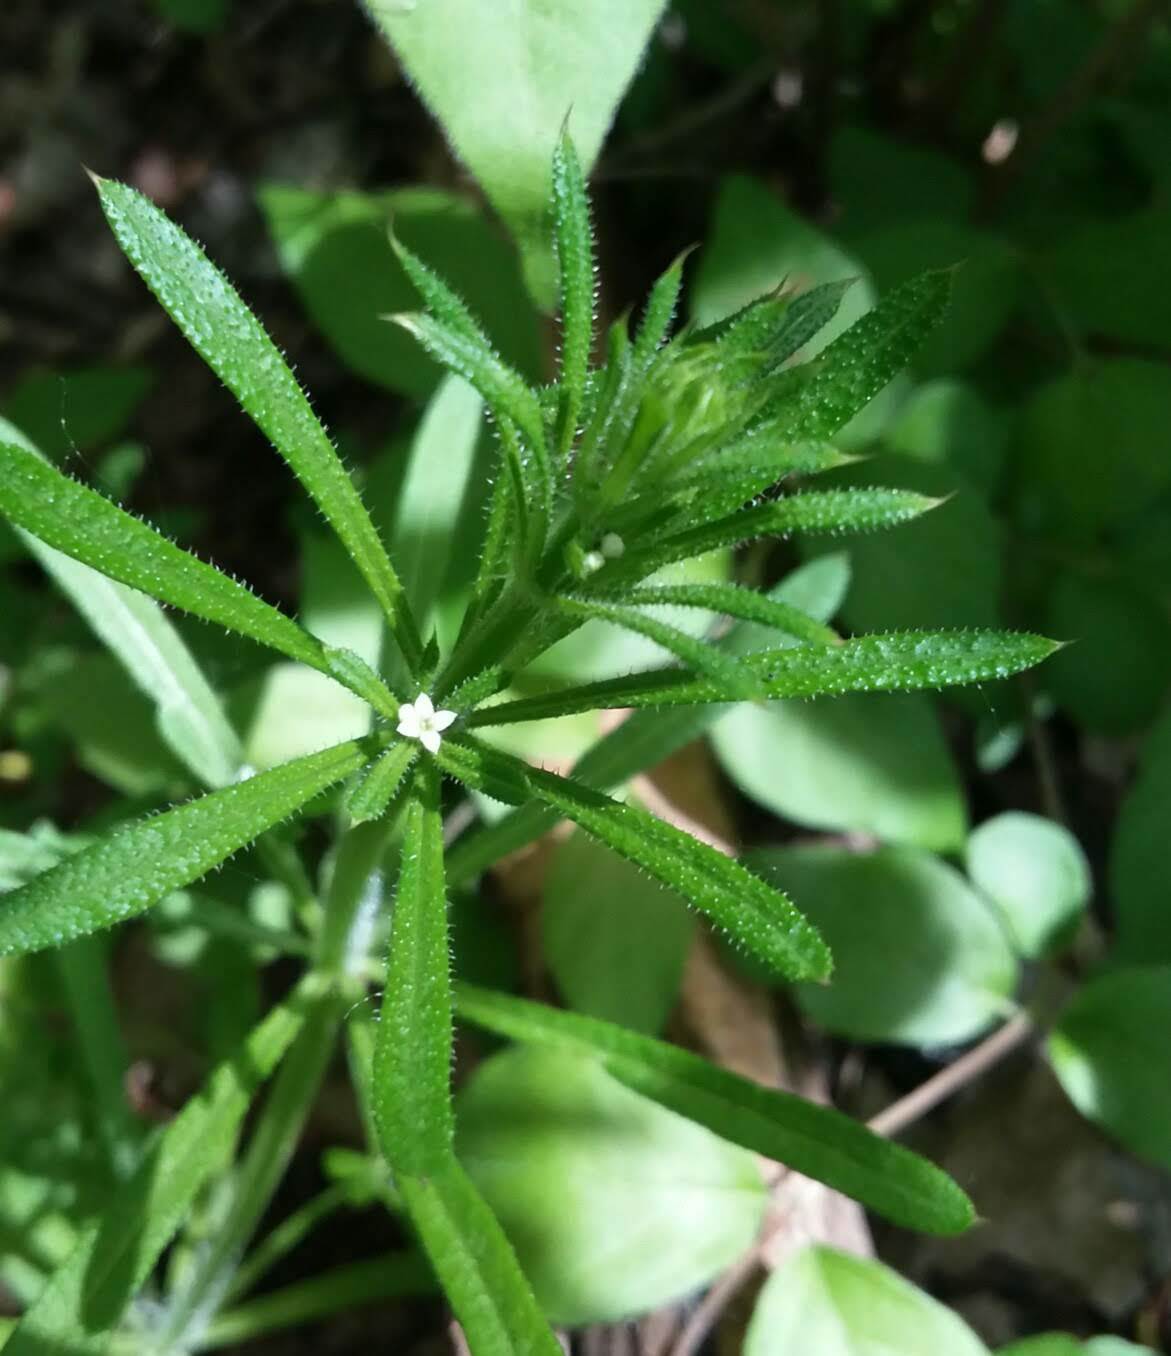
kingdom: Plantae
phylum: Tracheophyta
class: Magnoliopsida
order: Gentianales
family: Rubiaceae
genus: Galium
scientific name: Galium aparine
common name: Cleavers
